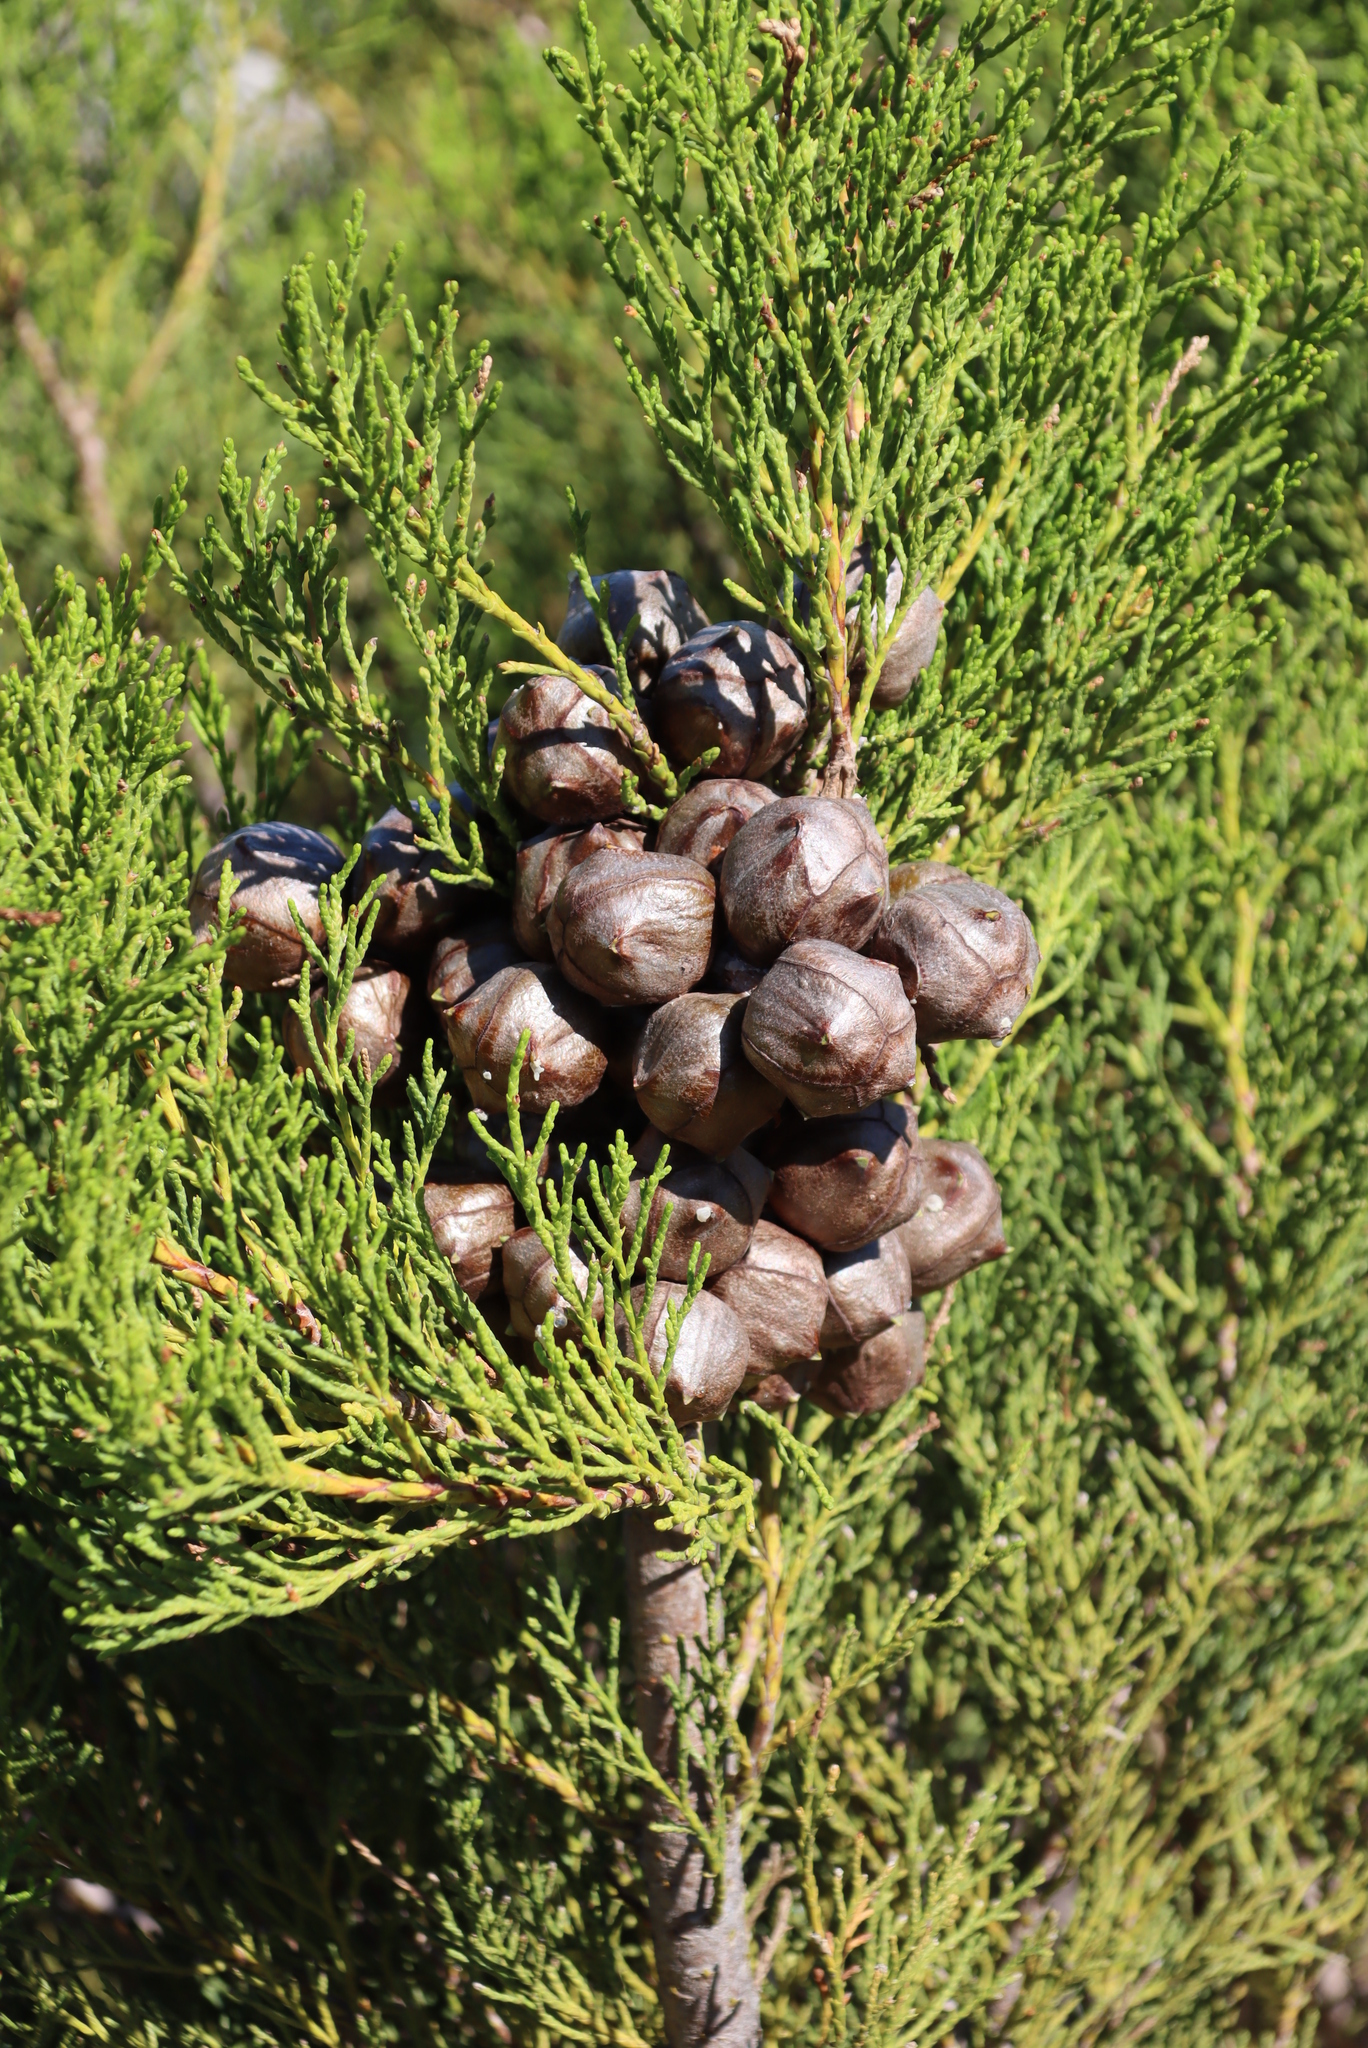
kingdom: Plantae
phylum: Tracheophyta
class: Pinopsida
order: Pinales
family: Cupressaceae
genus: Widdringtonia
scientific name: Widdringtonia nodiflora
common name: Cape cypress
